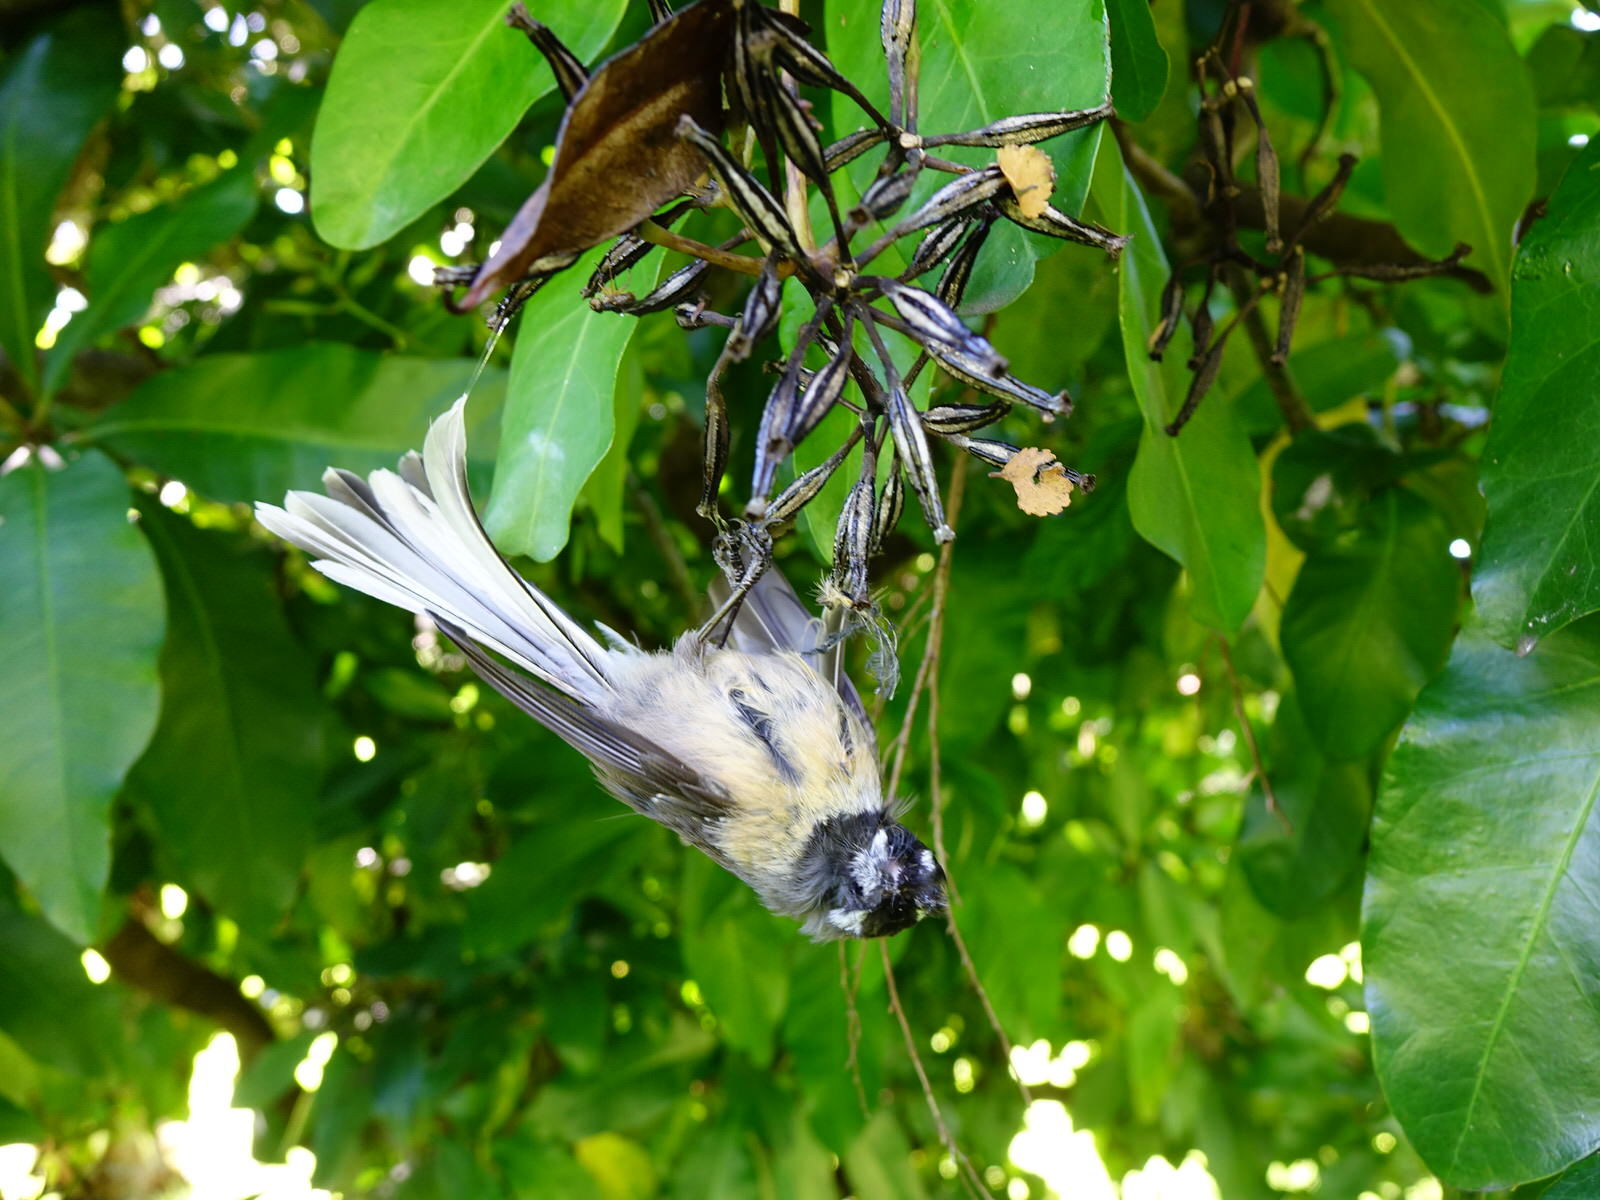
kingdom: Animalia
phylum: Chordata
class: Aves
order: Passeriformes
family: Rhipiduridae
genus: Rhipidura
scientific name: Rhipidura fuliginosa
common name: New zealand fantail
